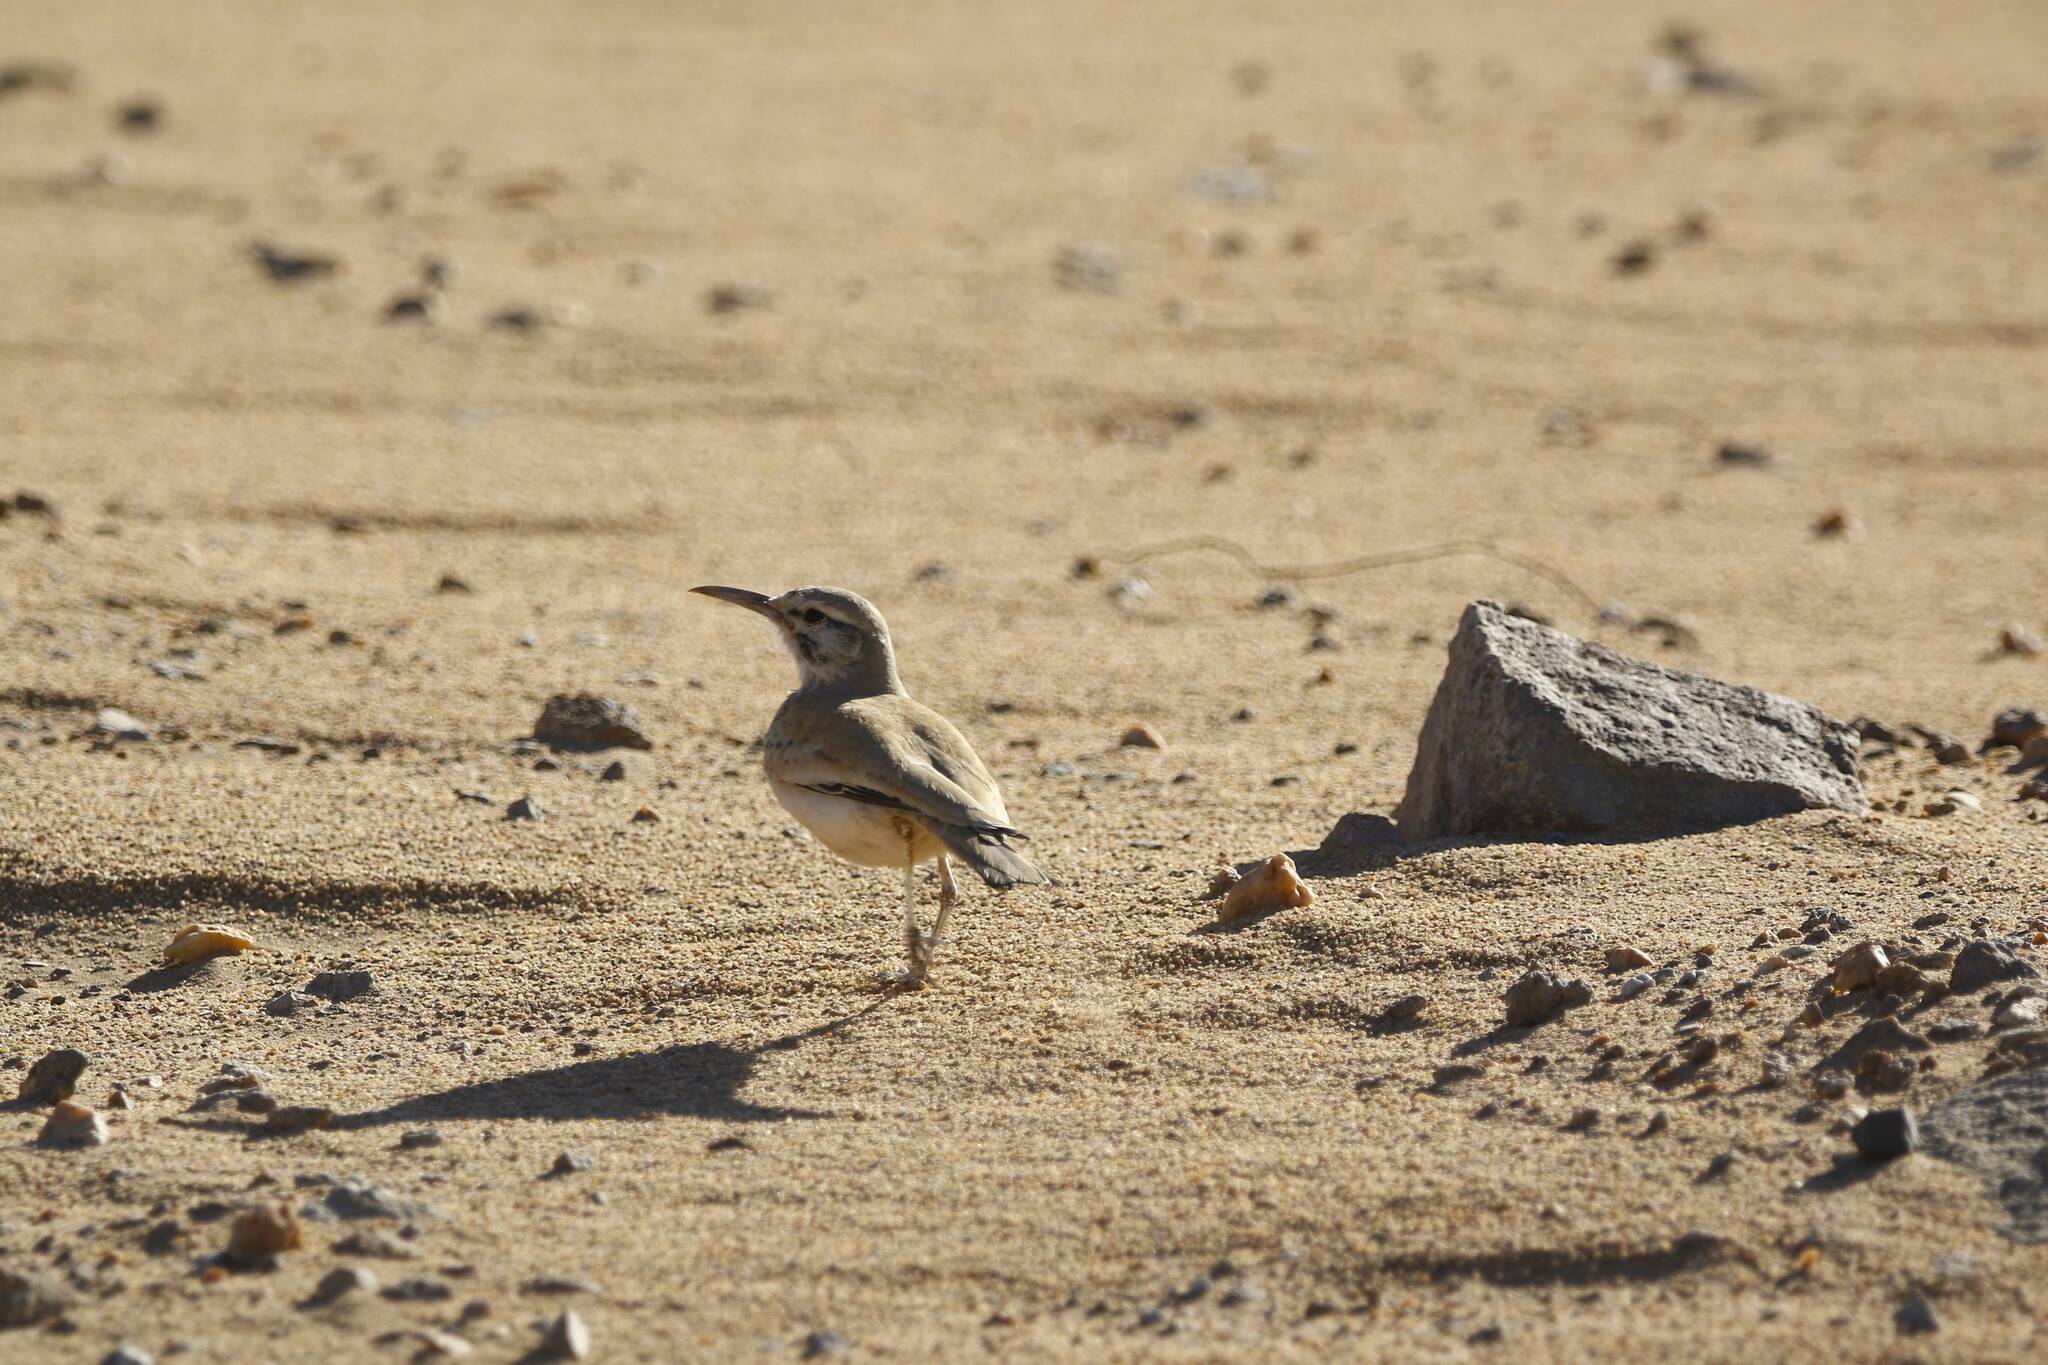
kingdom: Animalia
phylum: Chordata
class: Aves
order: Passeriformes
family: Alaudidae
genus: Alaemon
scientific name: Alaemon alaudipes
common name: Greater hoopoe-lark
